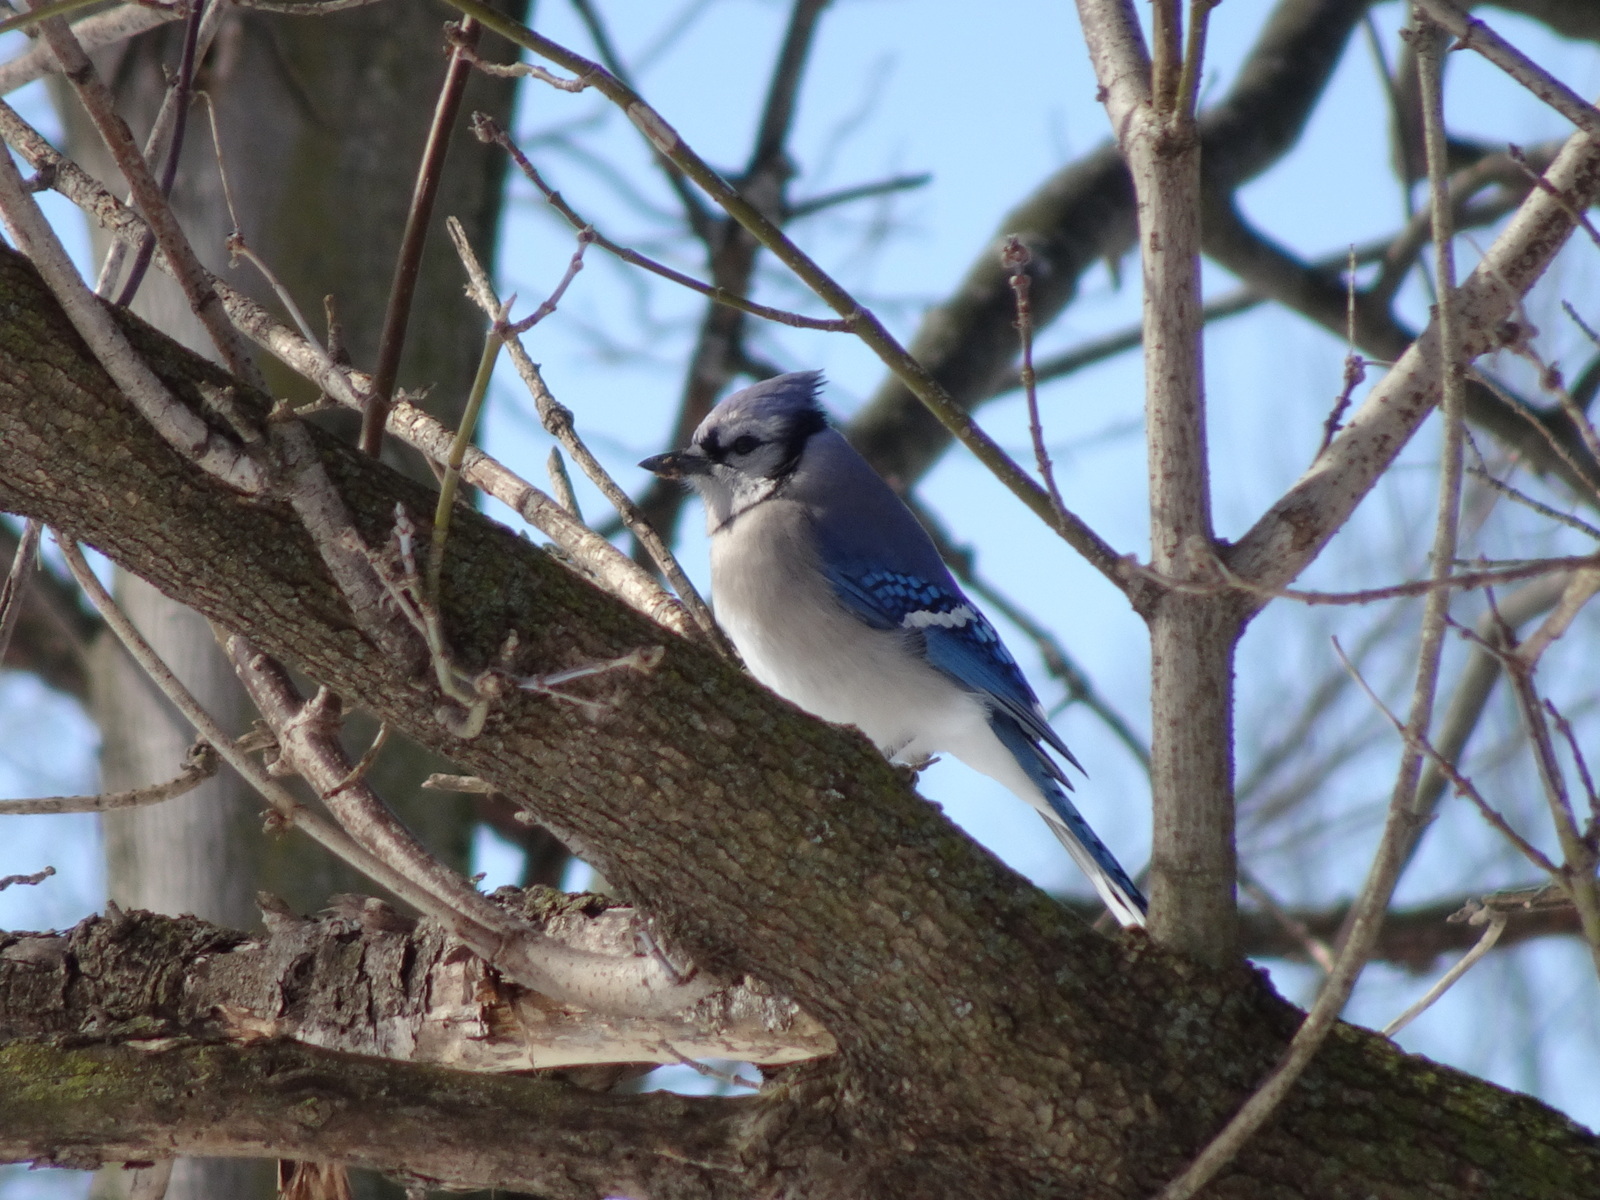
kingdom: Animalia
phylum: Chordata
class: Aves
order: Passeriformes
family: Corvidae
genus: Cyanocitta
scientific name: Cyanocitta cristata
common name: Blue jay
